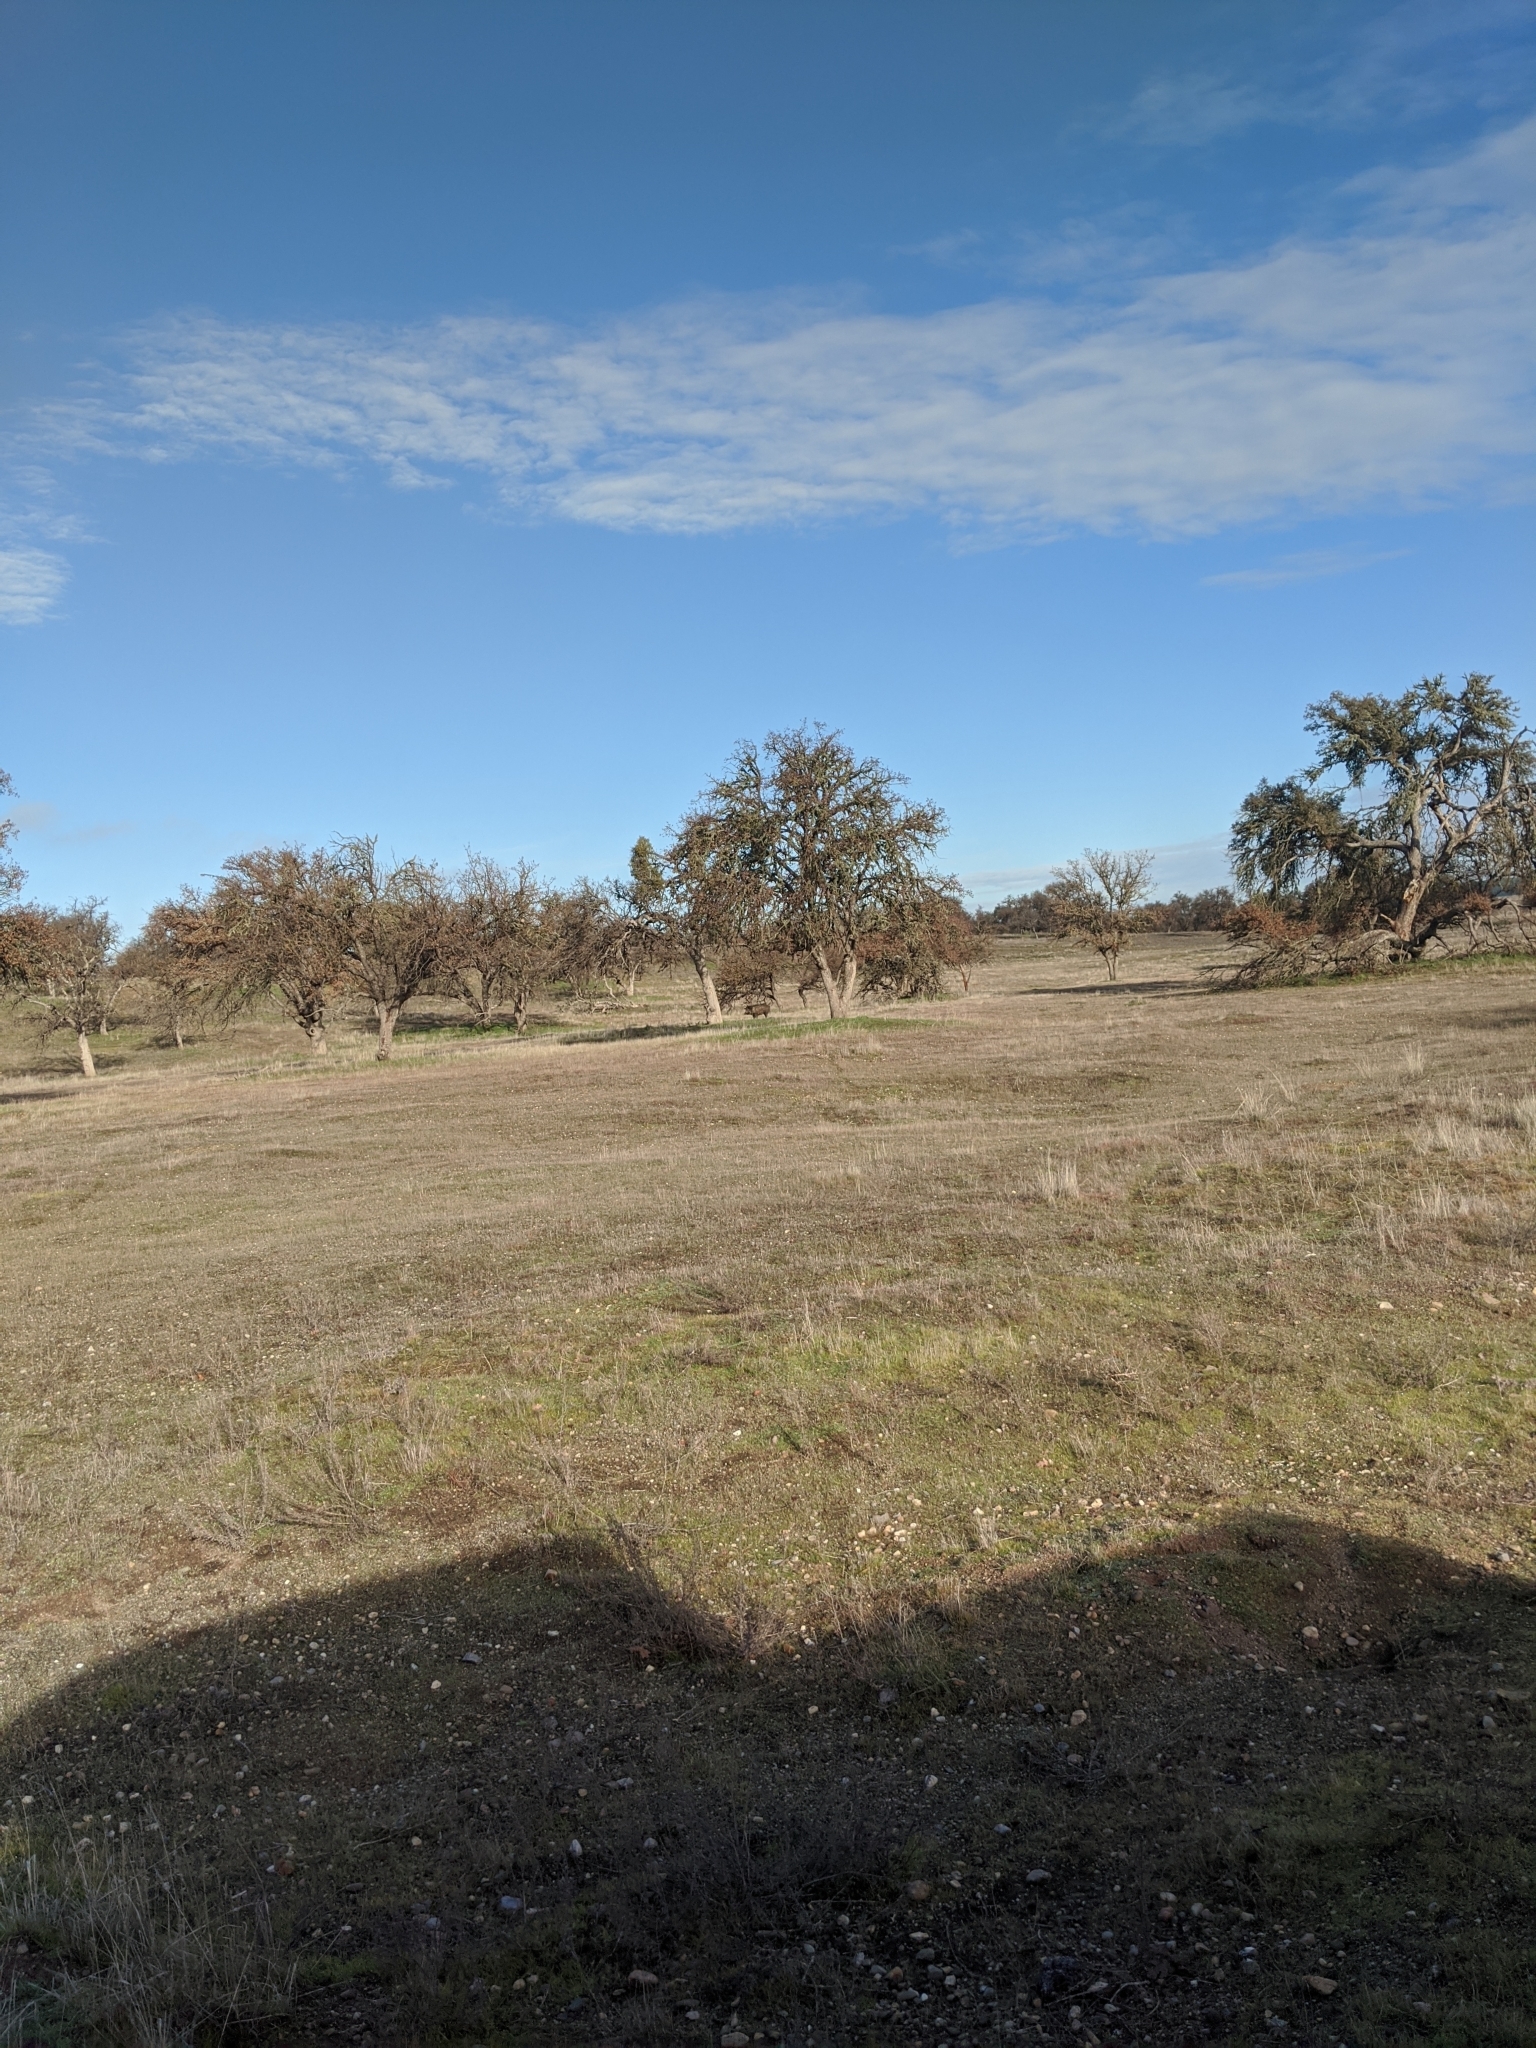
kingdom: Animalia
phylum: Chordata
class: Mammalia
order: Artiodactyla
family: Suidae
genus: Sus
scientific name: Sus scrofa
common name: Wild boar
